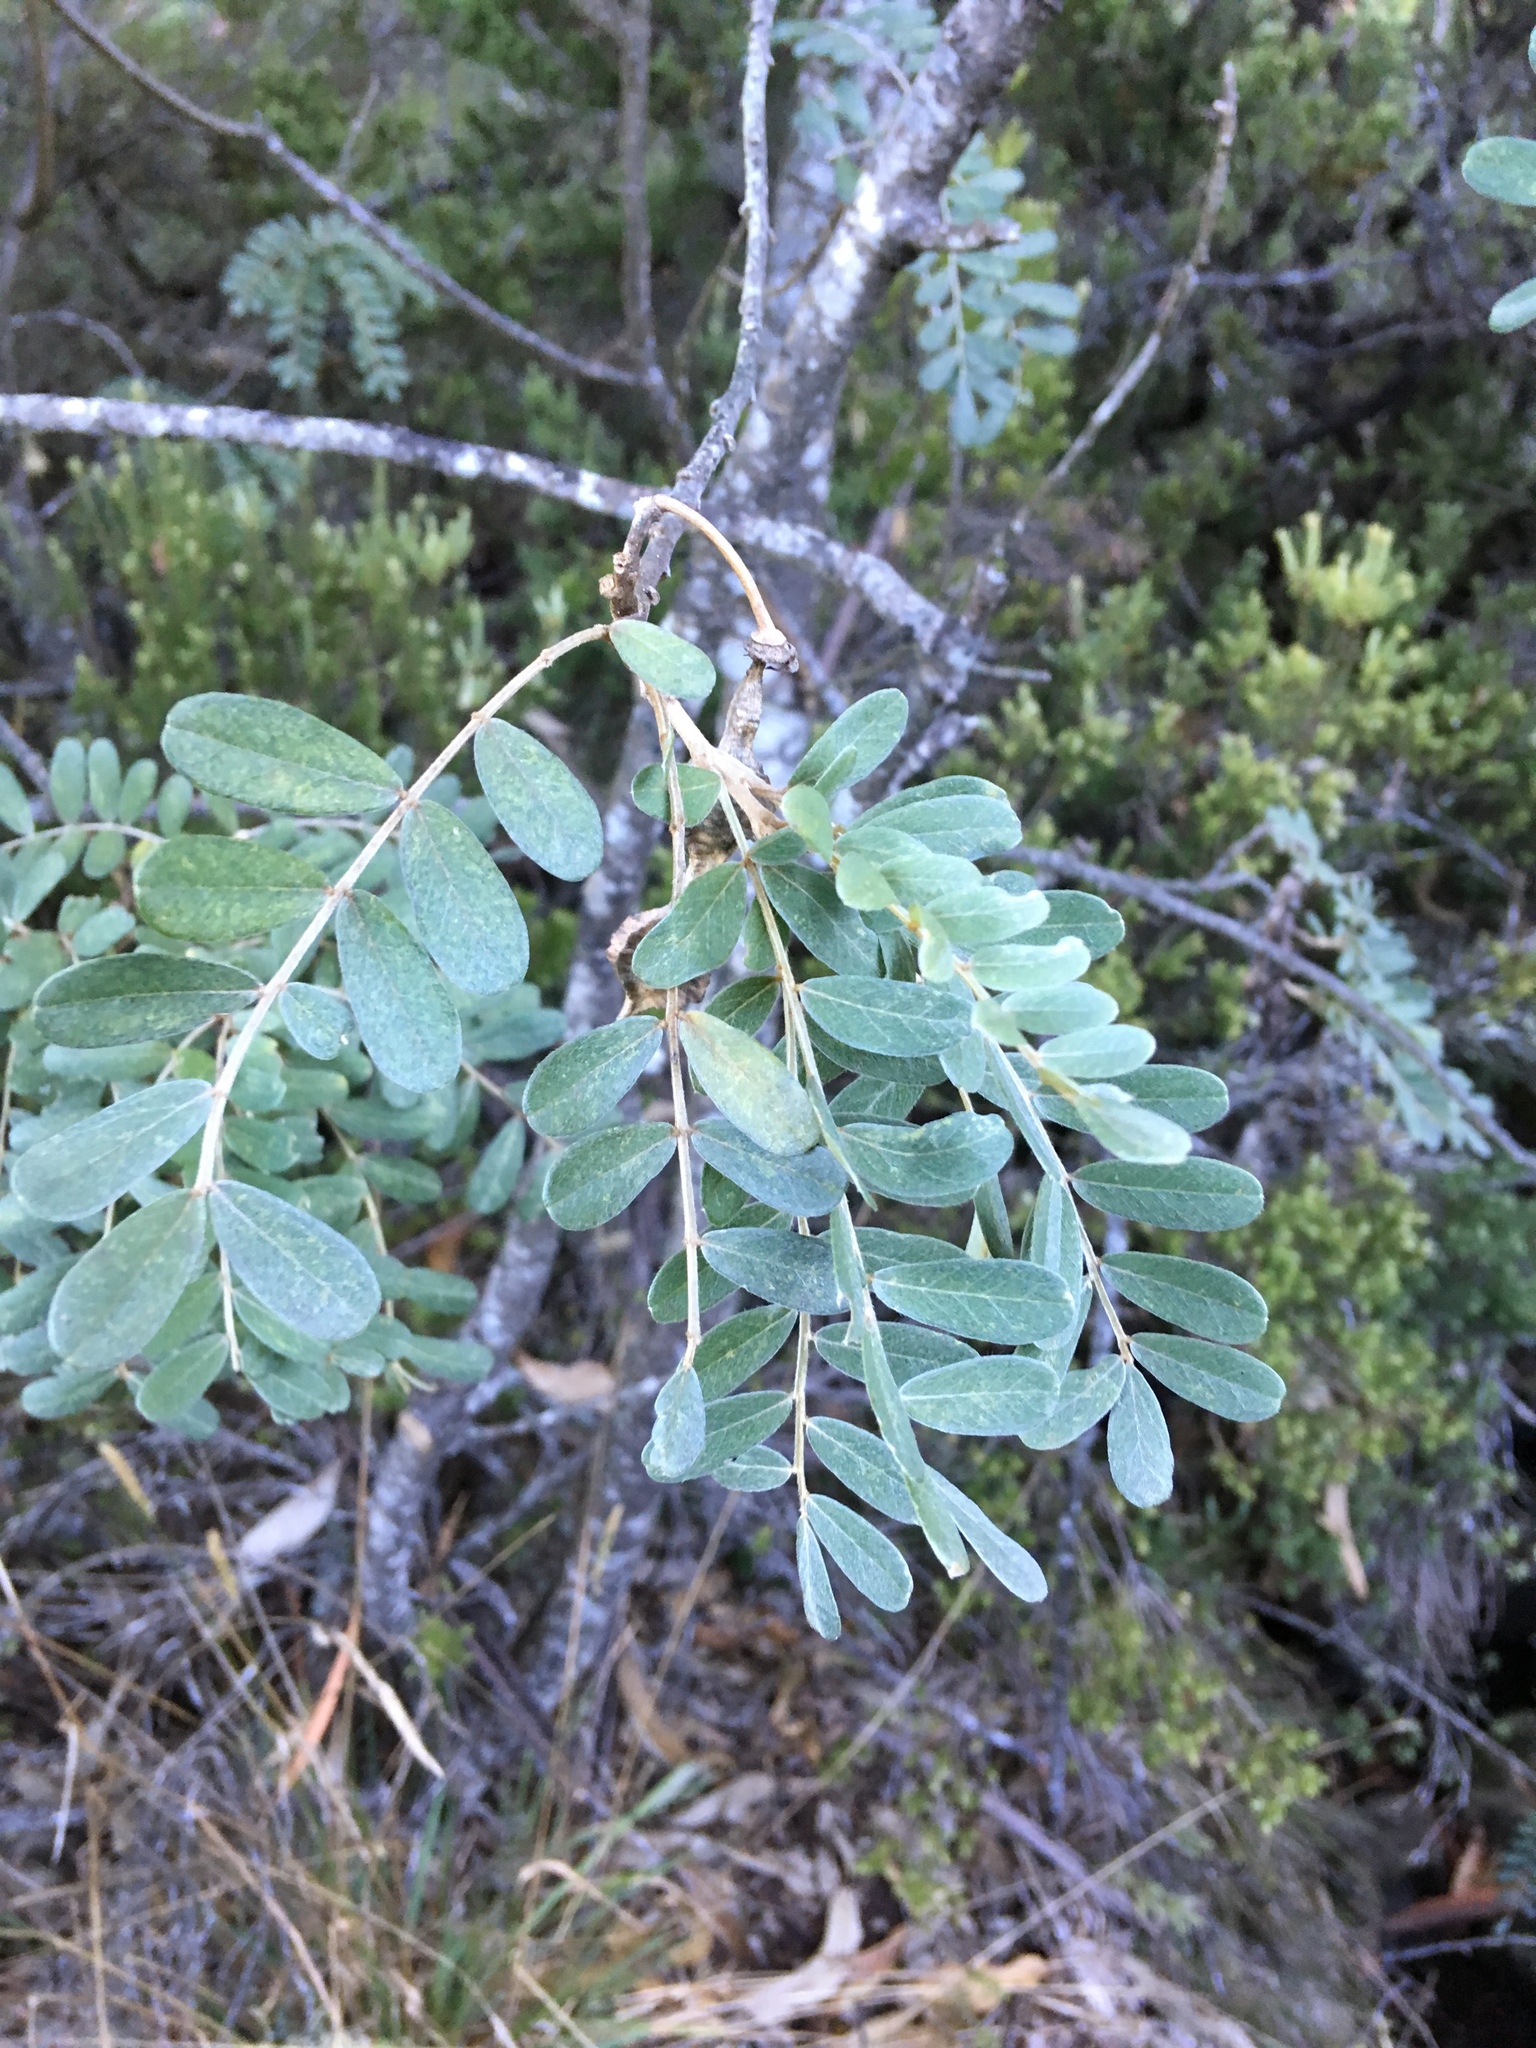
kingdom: Plantae
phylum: Tracheophyta
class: Magnoliopsida
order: Fabales
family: Fabaceae
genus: Sophora
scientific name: Sophora chrysophylla
